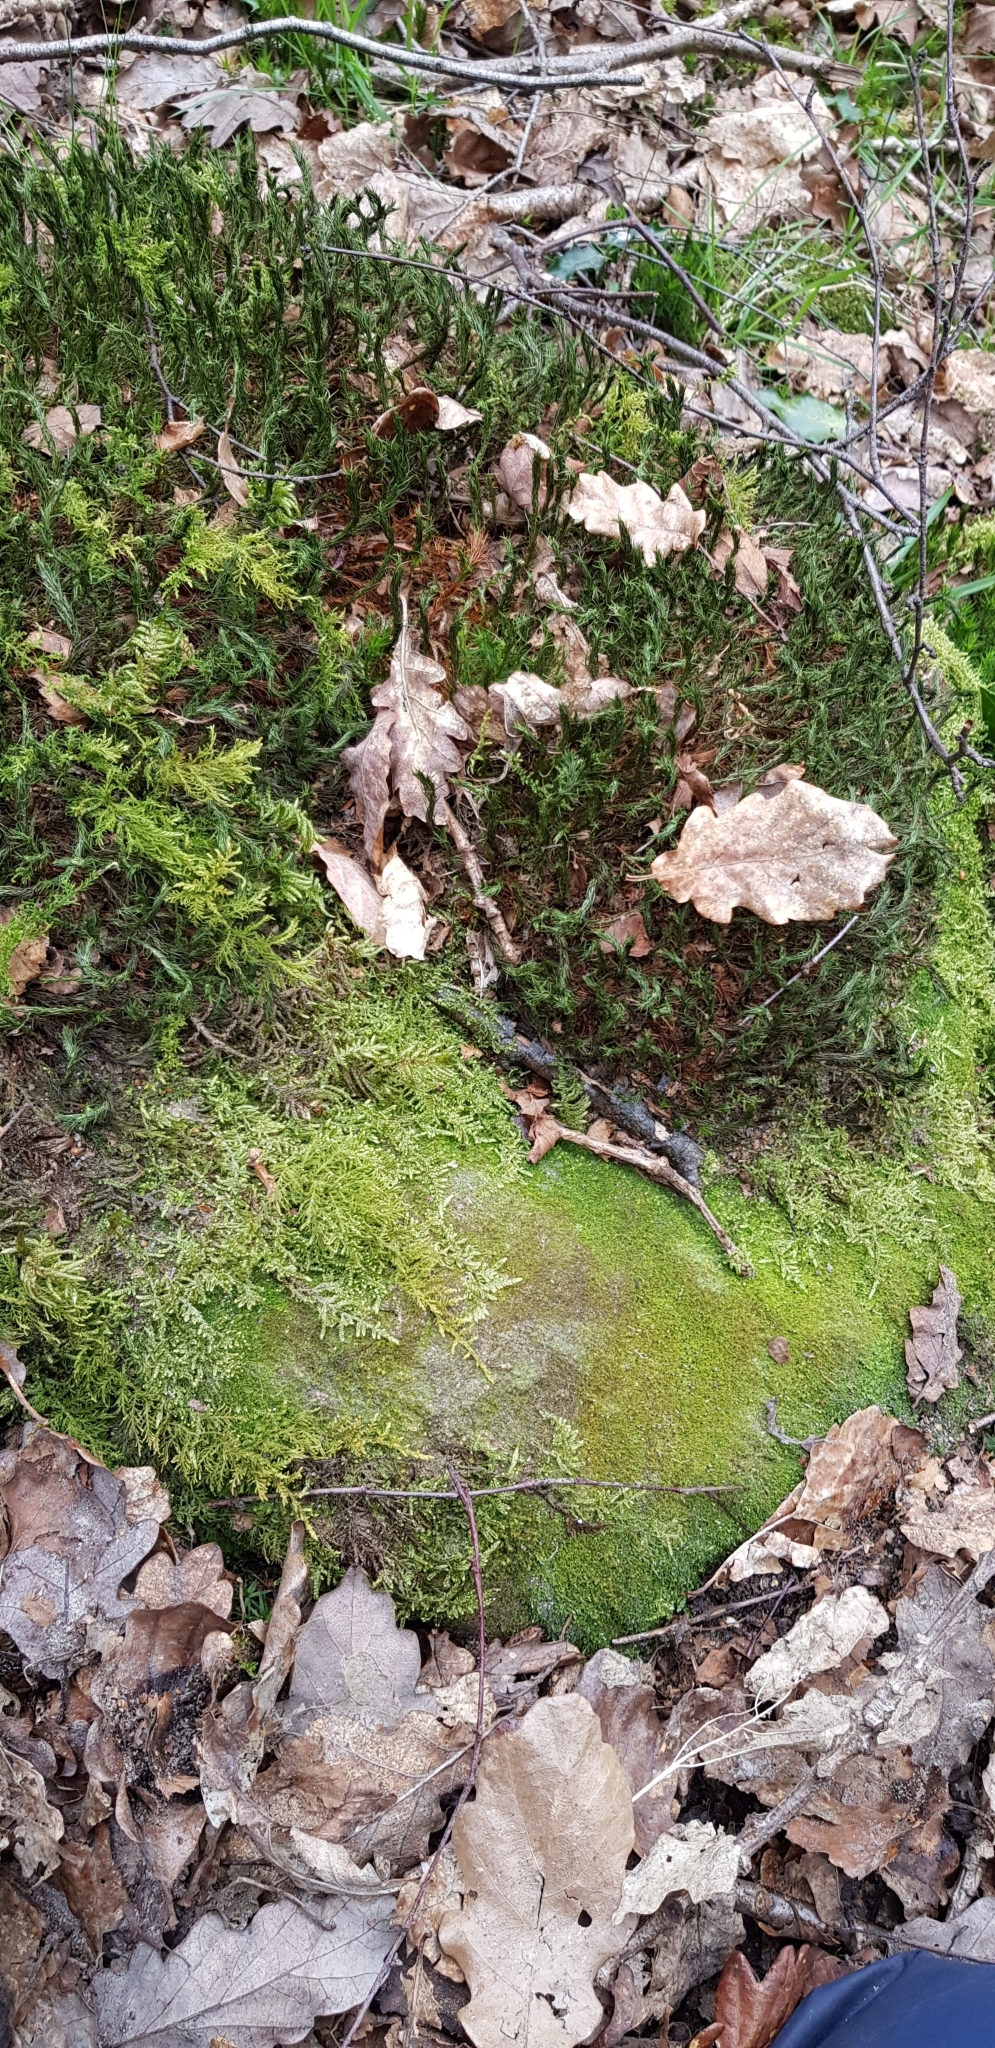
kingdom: Plantae
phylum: Marchantiophyta
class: Jungermanniopsida
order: Jungermanniales
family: Cephaloziaceae
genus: Cephalozia
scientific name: Cephalozia bicuspidata
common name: Two-horned pincerwort
